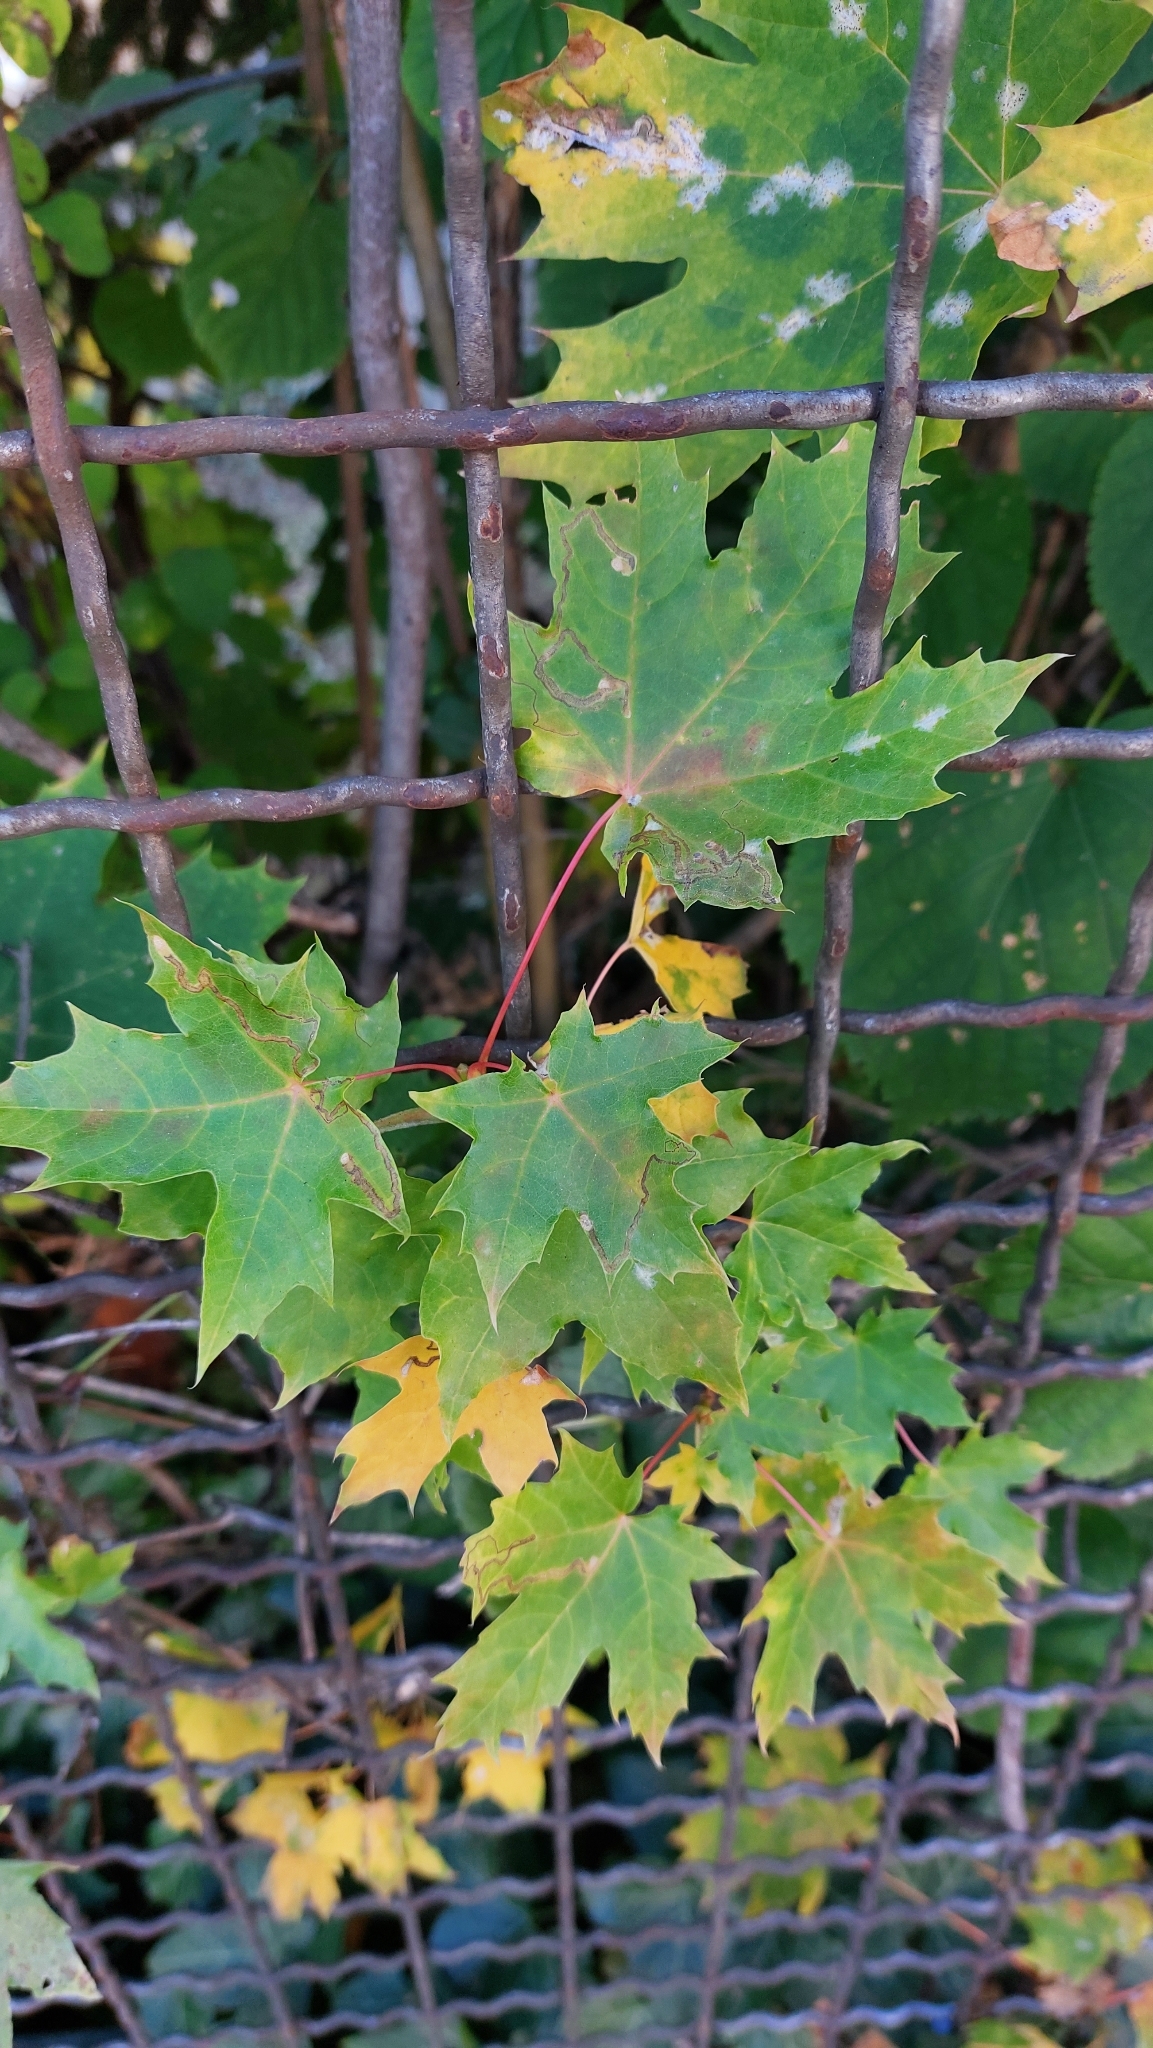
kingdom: Plantae
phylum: Tracheophyta
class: Magnoliopsida
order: Sapindales
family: Sapindaceae
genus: Acer
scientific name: Acer platanoides
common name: Norway maple
